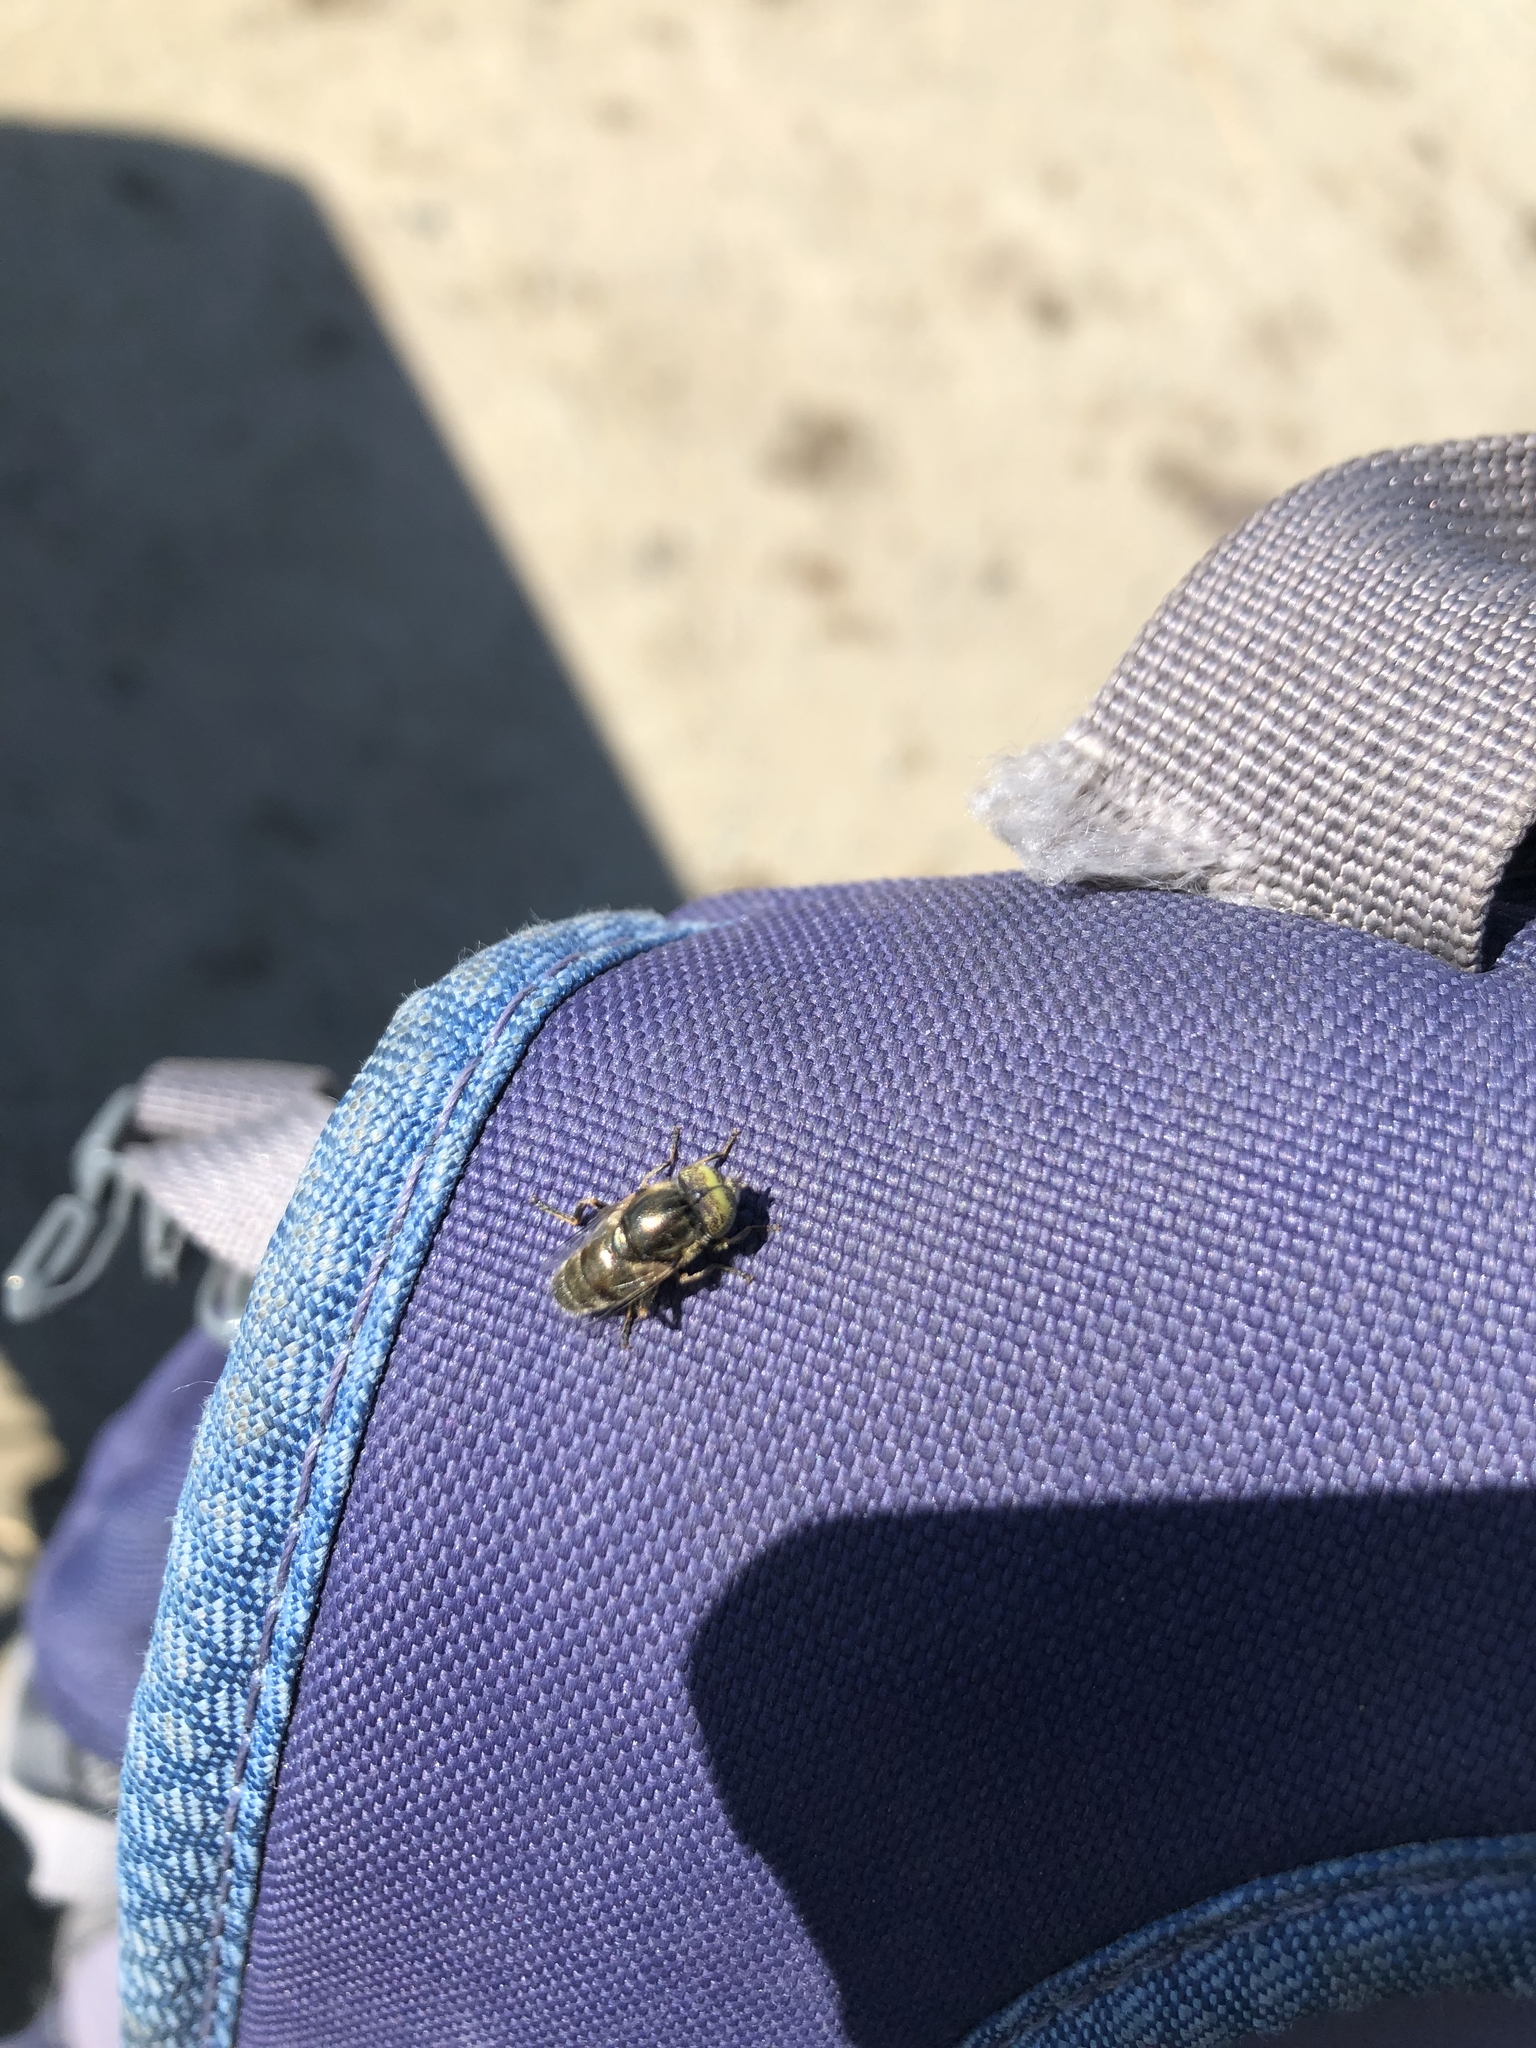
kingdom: Animalia
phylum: Arthropoda
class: Insecta
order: Diptera
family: Syrphidae
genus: Eristalinus
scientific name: Eristalinus aeneus
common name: Syrphid fly
